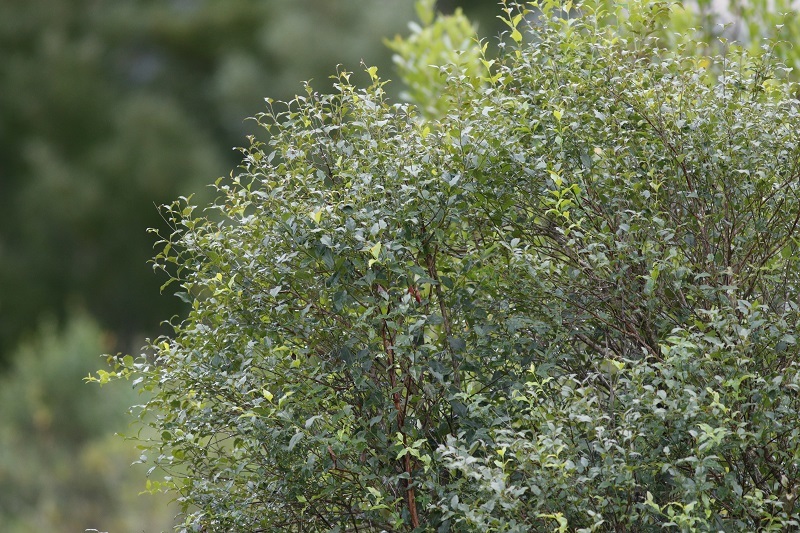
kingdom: Plantae
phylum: Tracheophyta
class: Magnoliopsida
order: Lamiales
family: Stilbaceae
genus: Halleria
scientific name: Halleria lucida
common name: Tree fuschia
